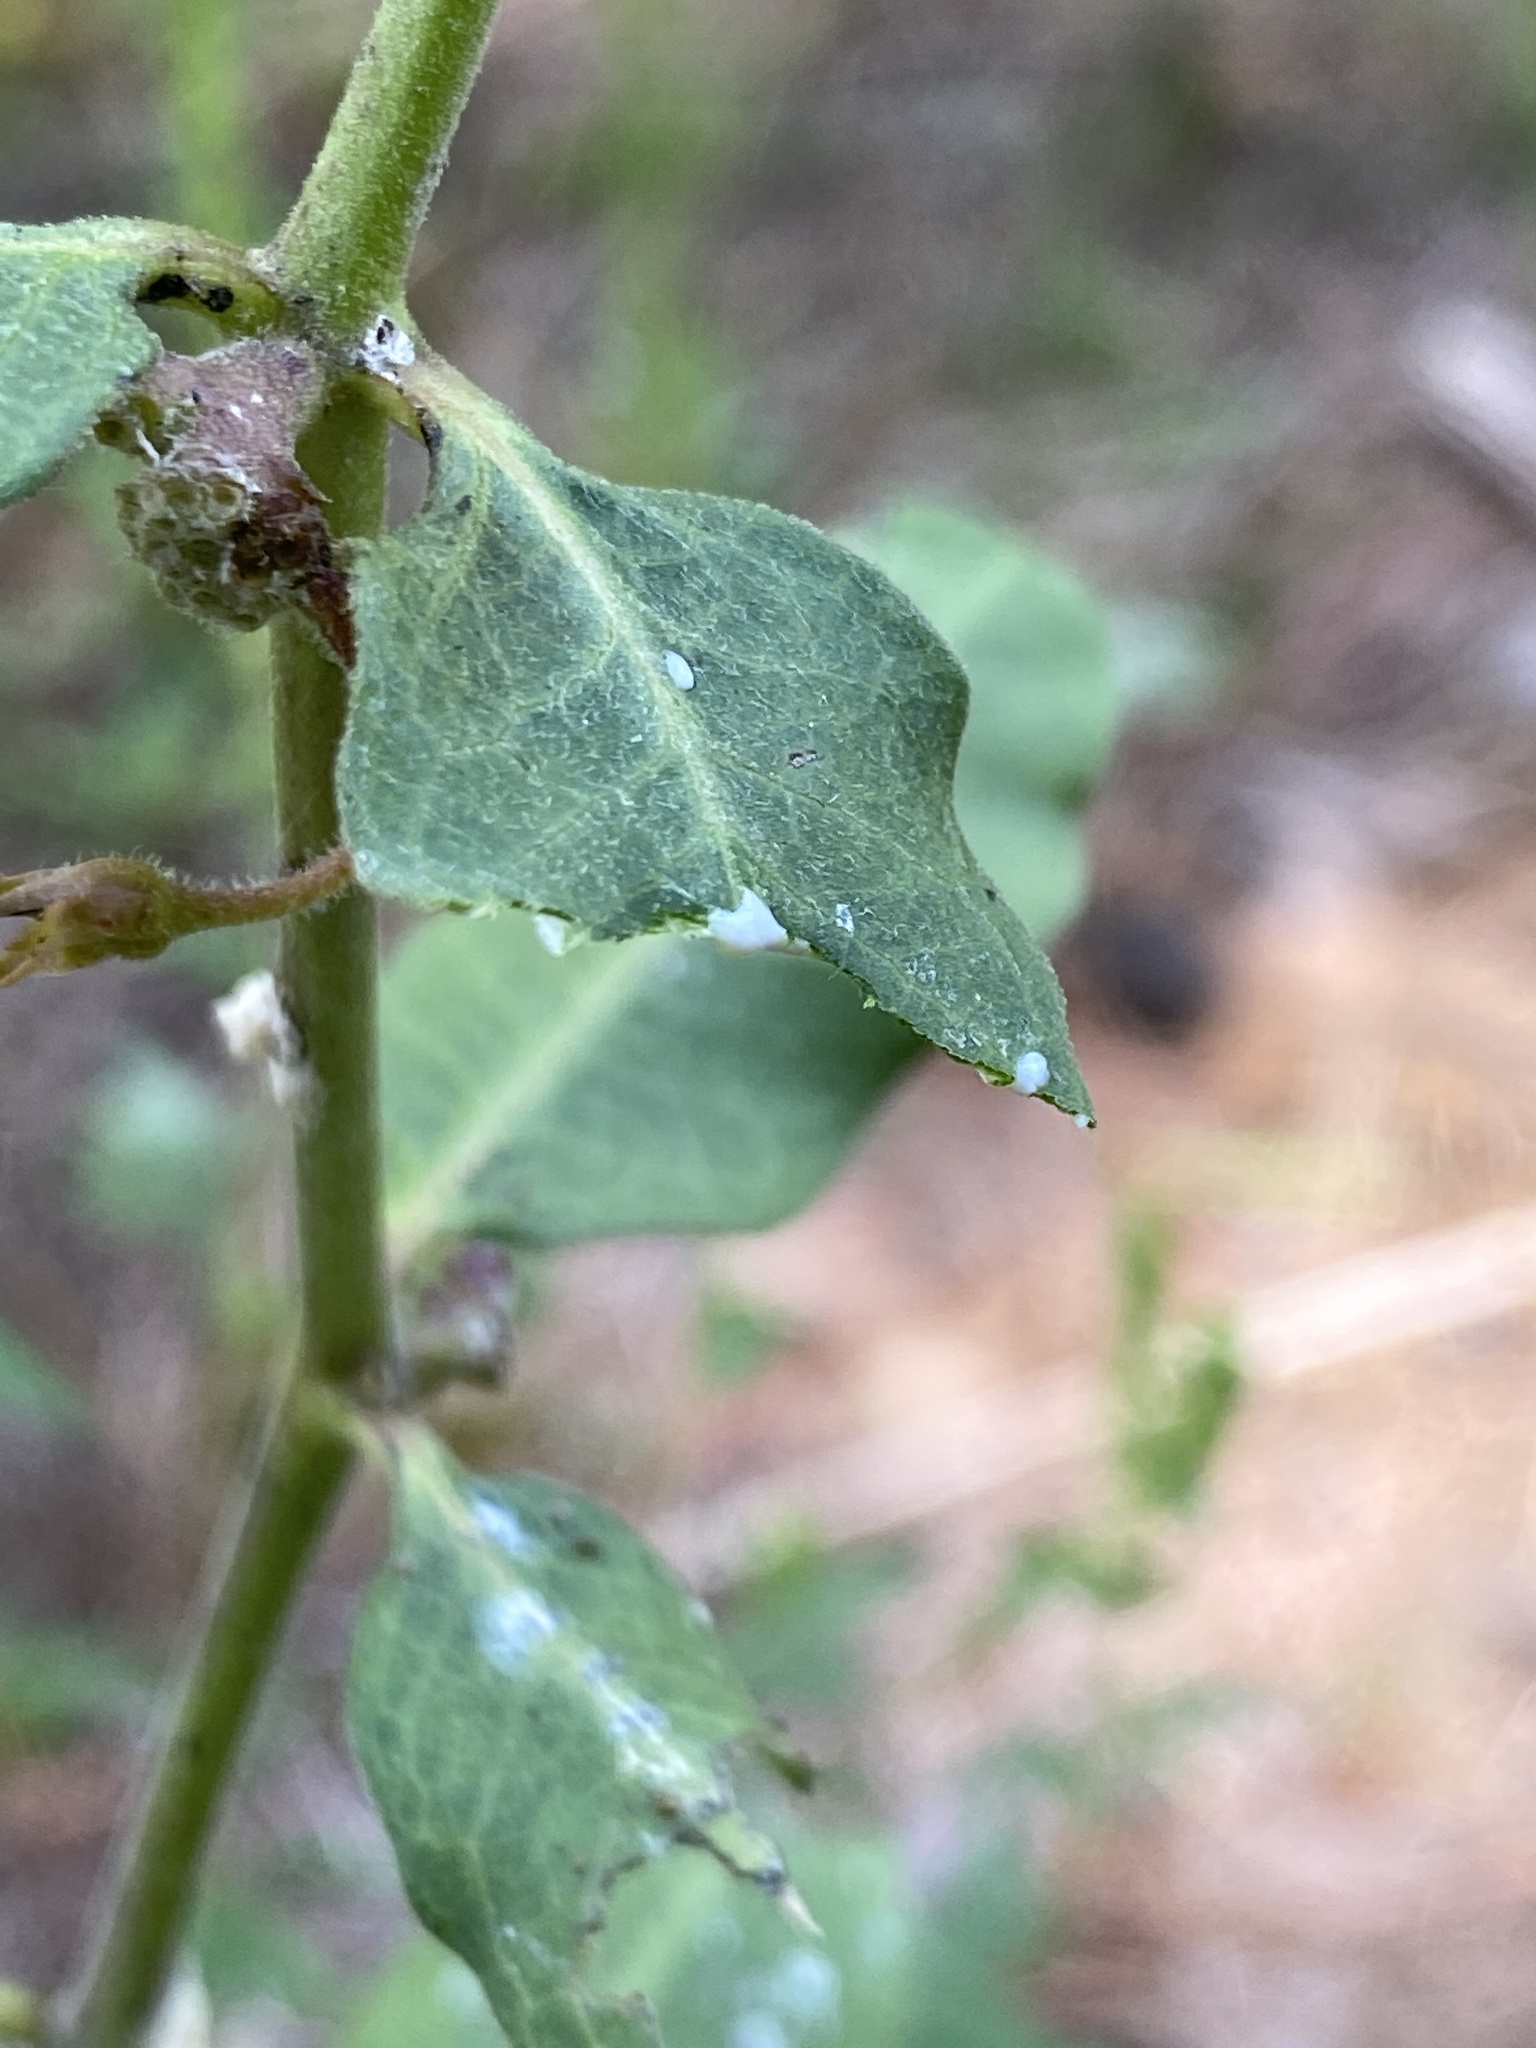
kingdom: Plantae
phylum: Tracheophyta
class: Magnoliopsida
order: Gentianales
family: Apocynaceae
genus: Asclepias
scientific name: Asclepias viridiflora
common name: Green comet milkweed
